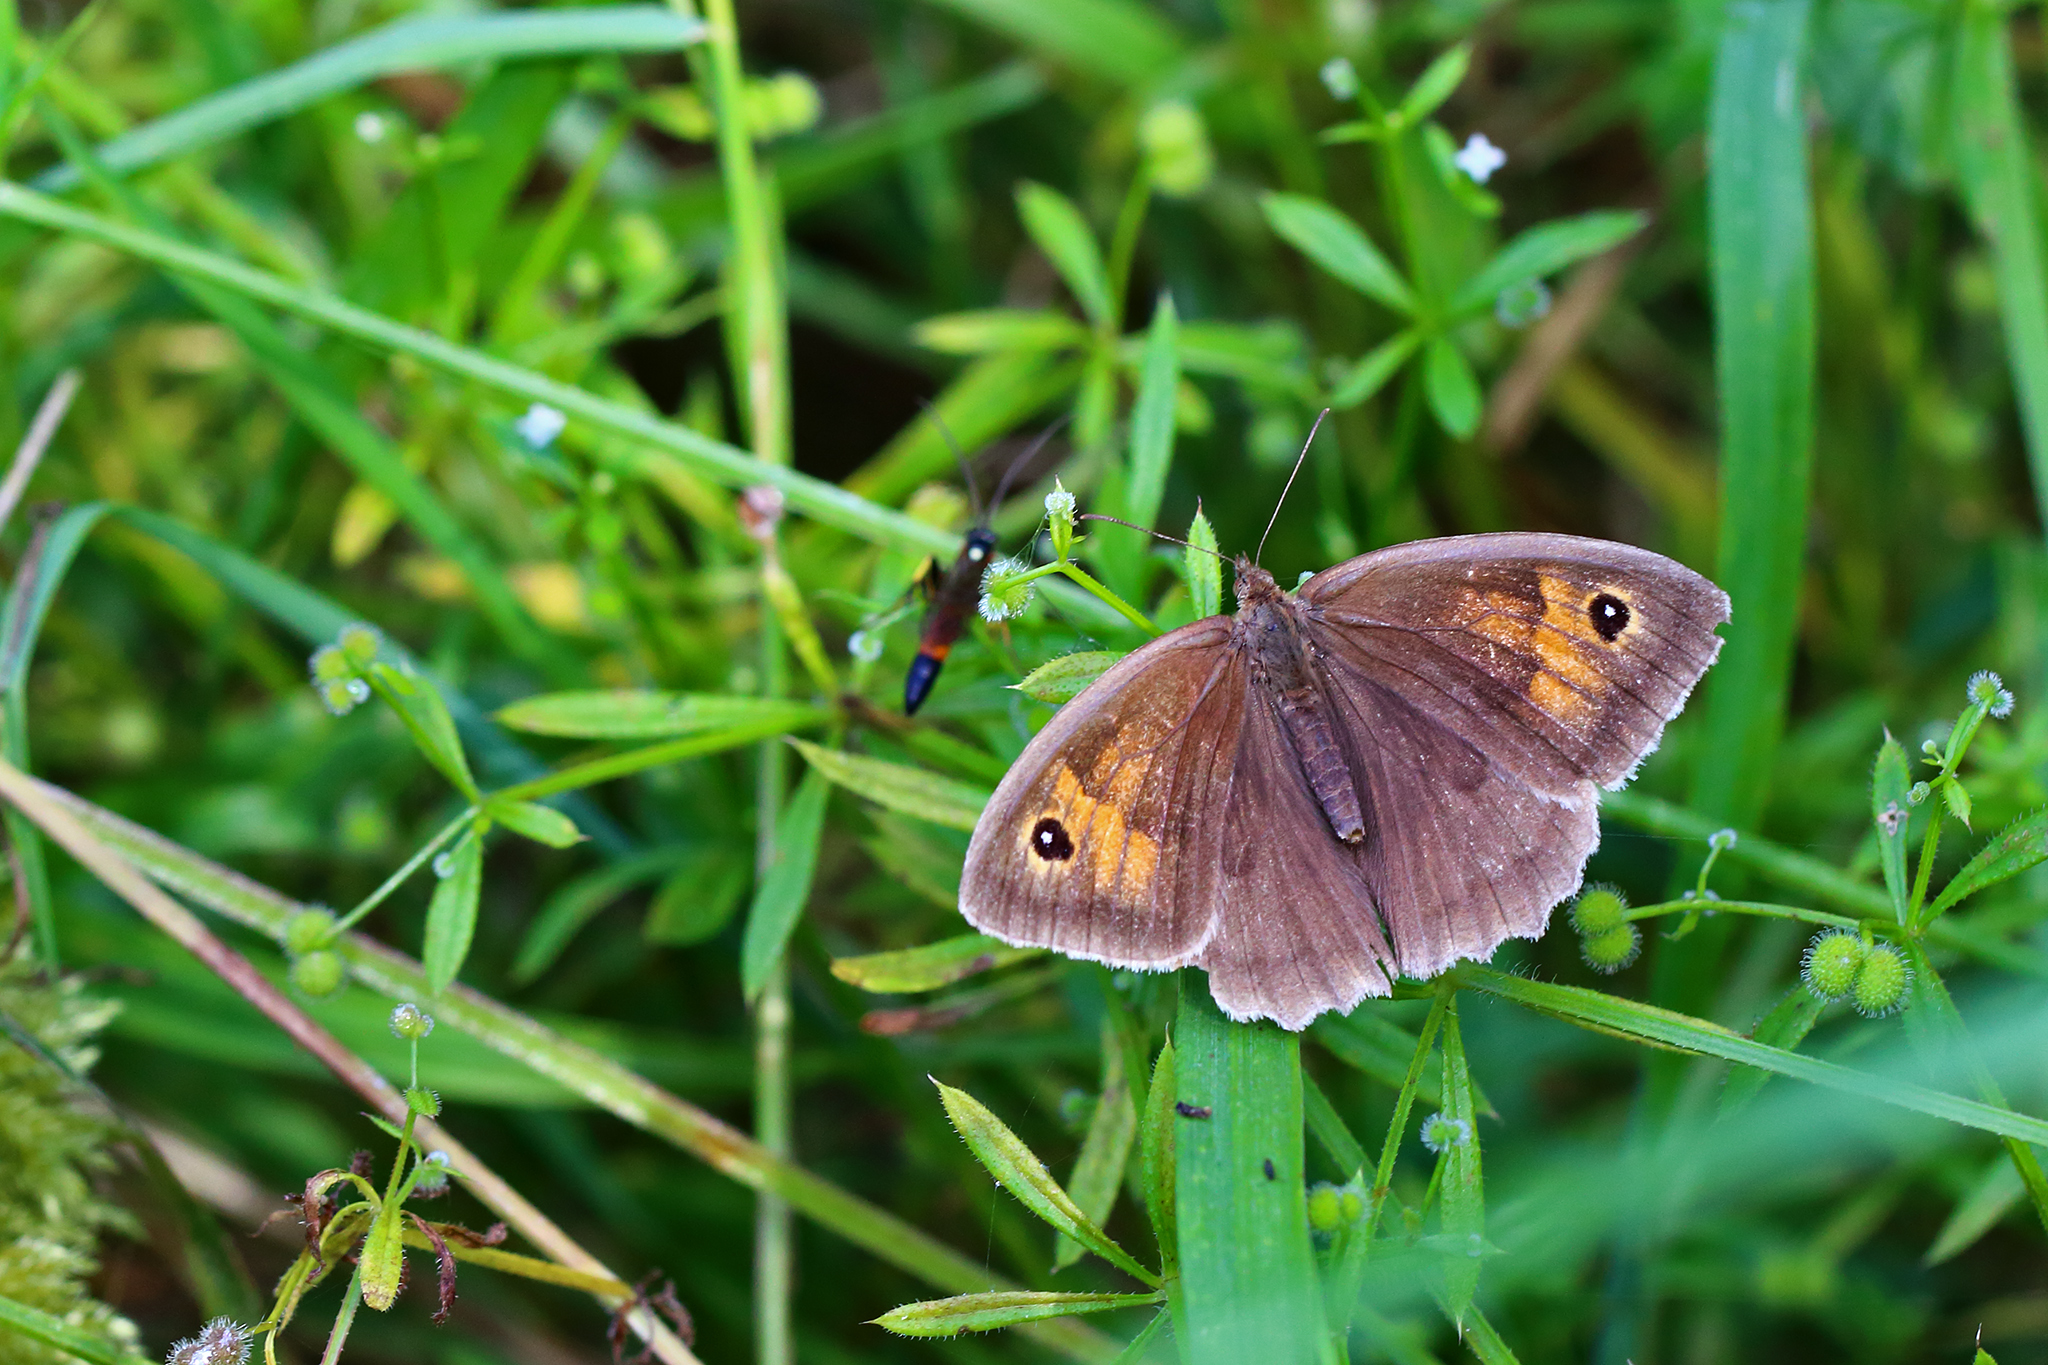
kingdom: Animalia
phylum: Arthropoda
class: Insecta
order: Lepidoptera
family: Nymphalidae
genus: Maniola
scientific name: Maniola jurtina
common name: Meadow brown
